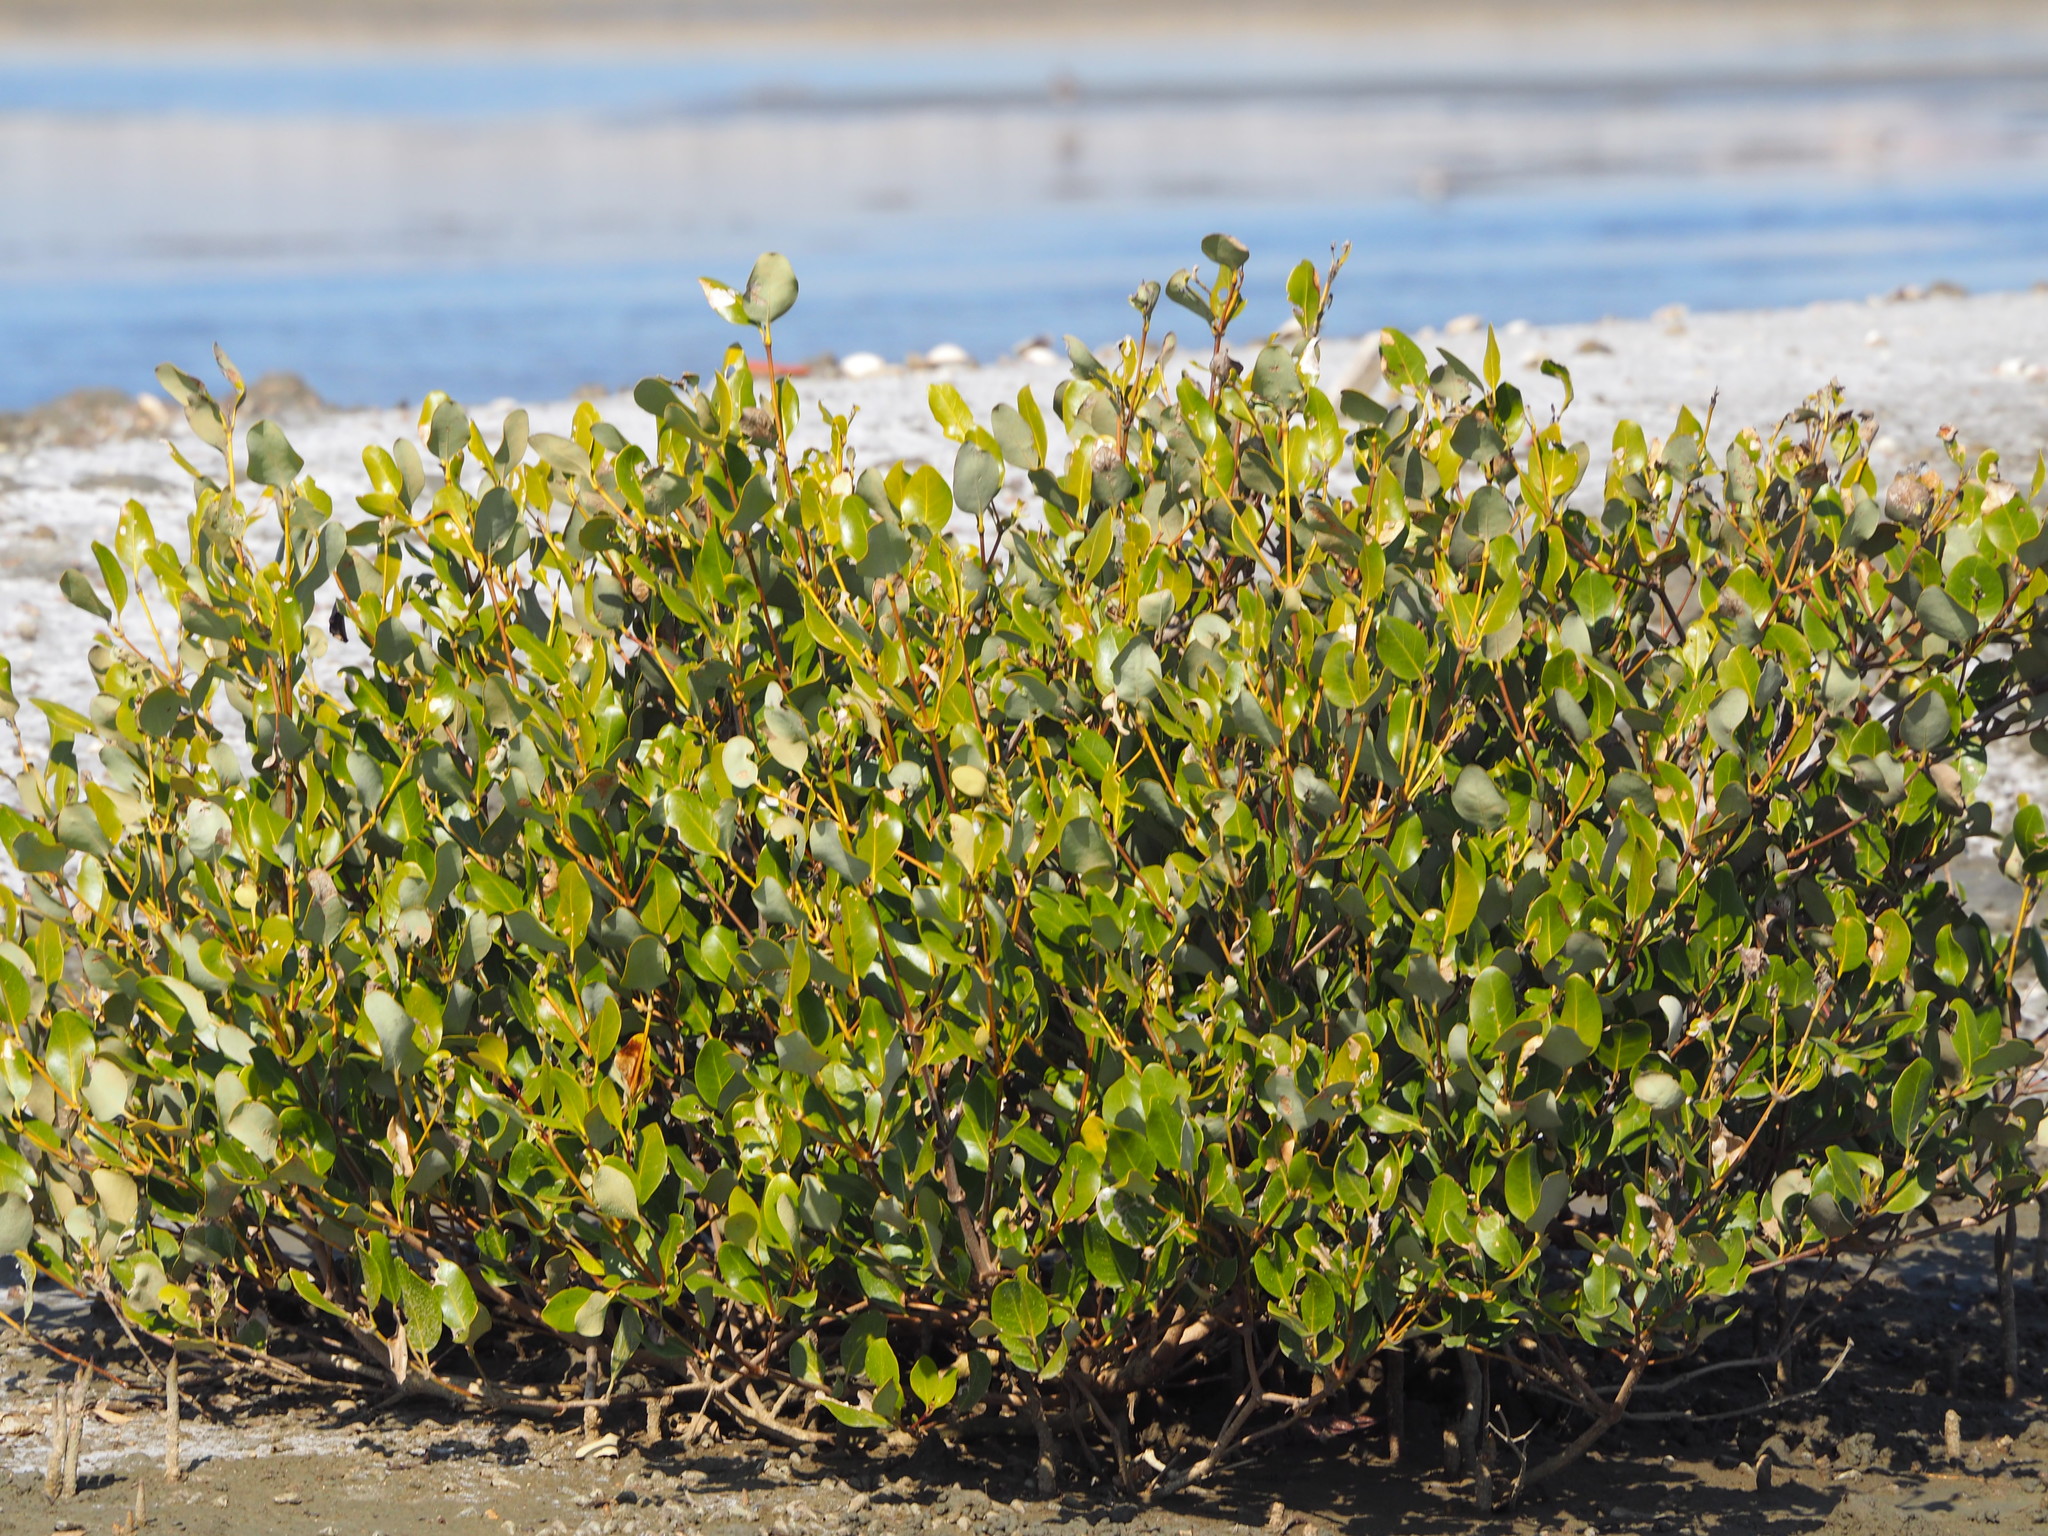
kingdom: Plantae
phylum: Tracheophyta
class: Magnoliopsida
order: Lamiales
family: Acanthaceae
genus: Avicennia
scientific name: Avicennia marina
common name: Gray mangrove
